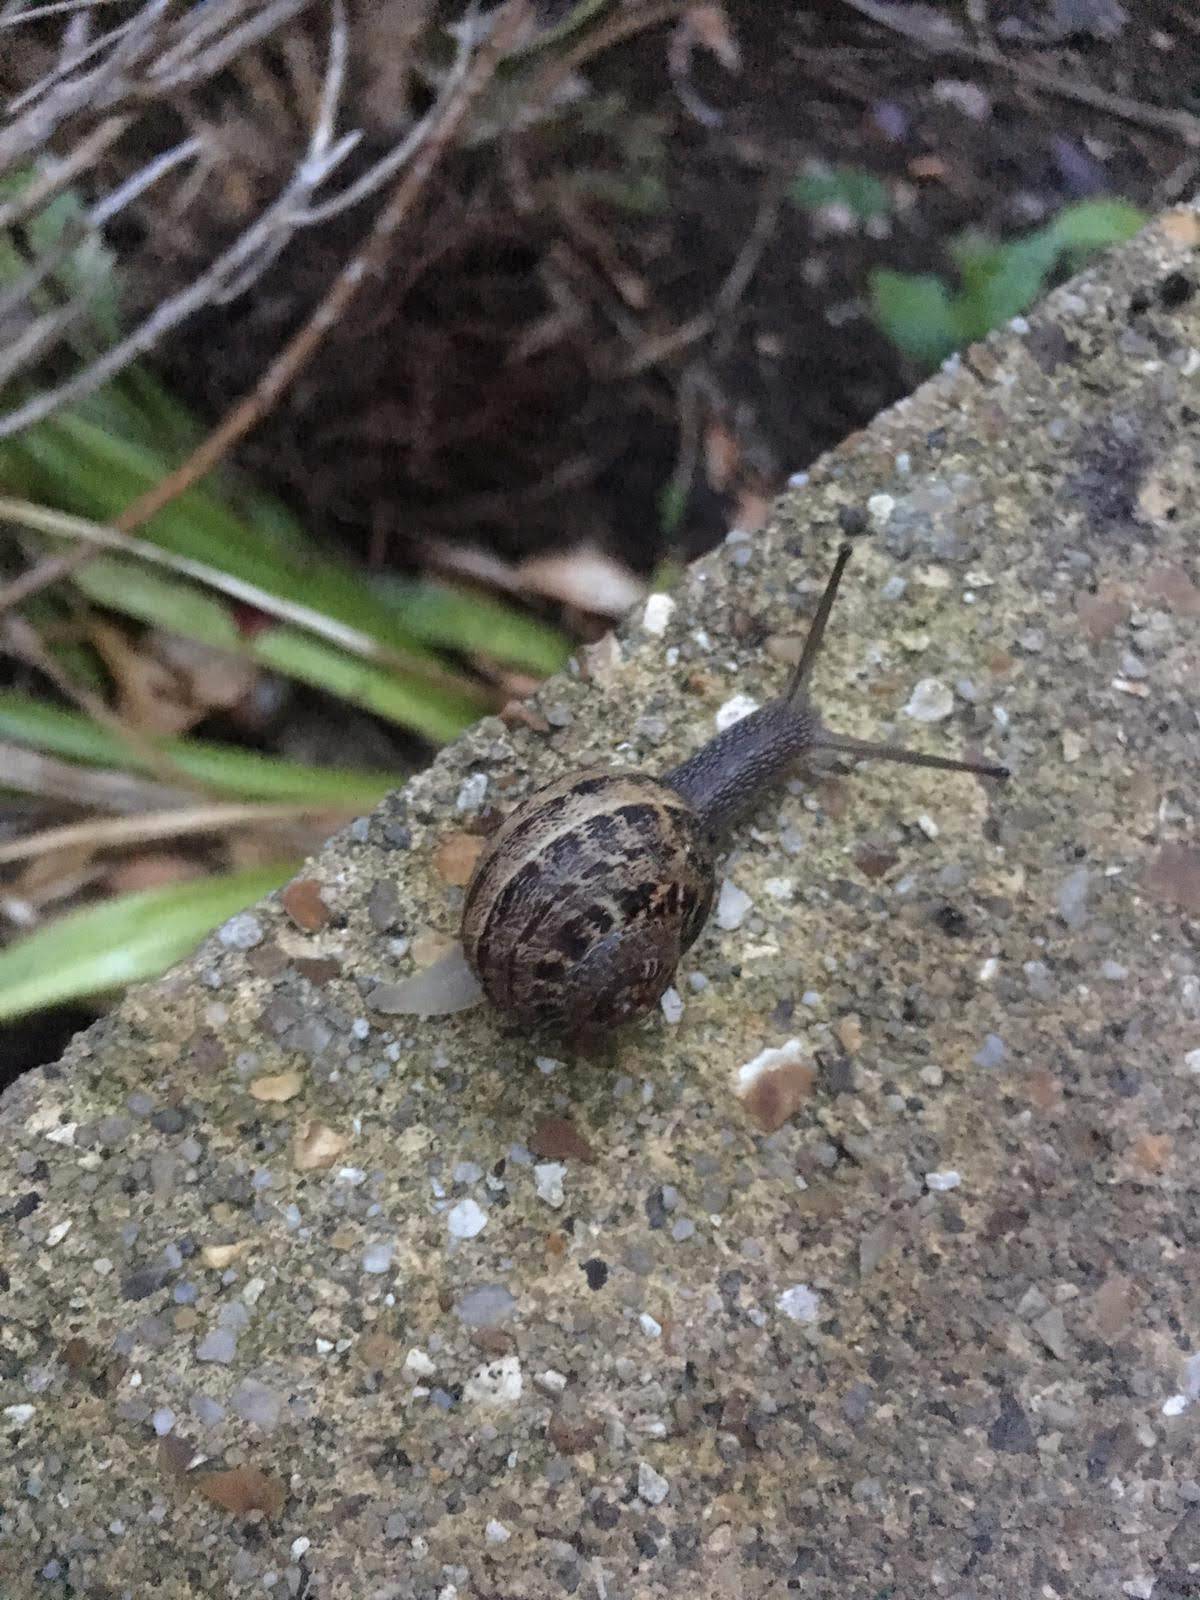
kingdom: Animalia
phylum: Mollusca
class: Gastropoda
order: Stylommatophora
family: Helicidae
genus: Cornu
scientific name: Cornu aspersum
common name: Brown garden snail
